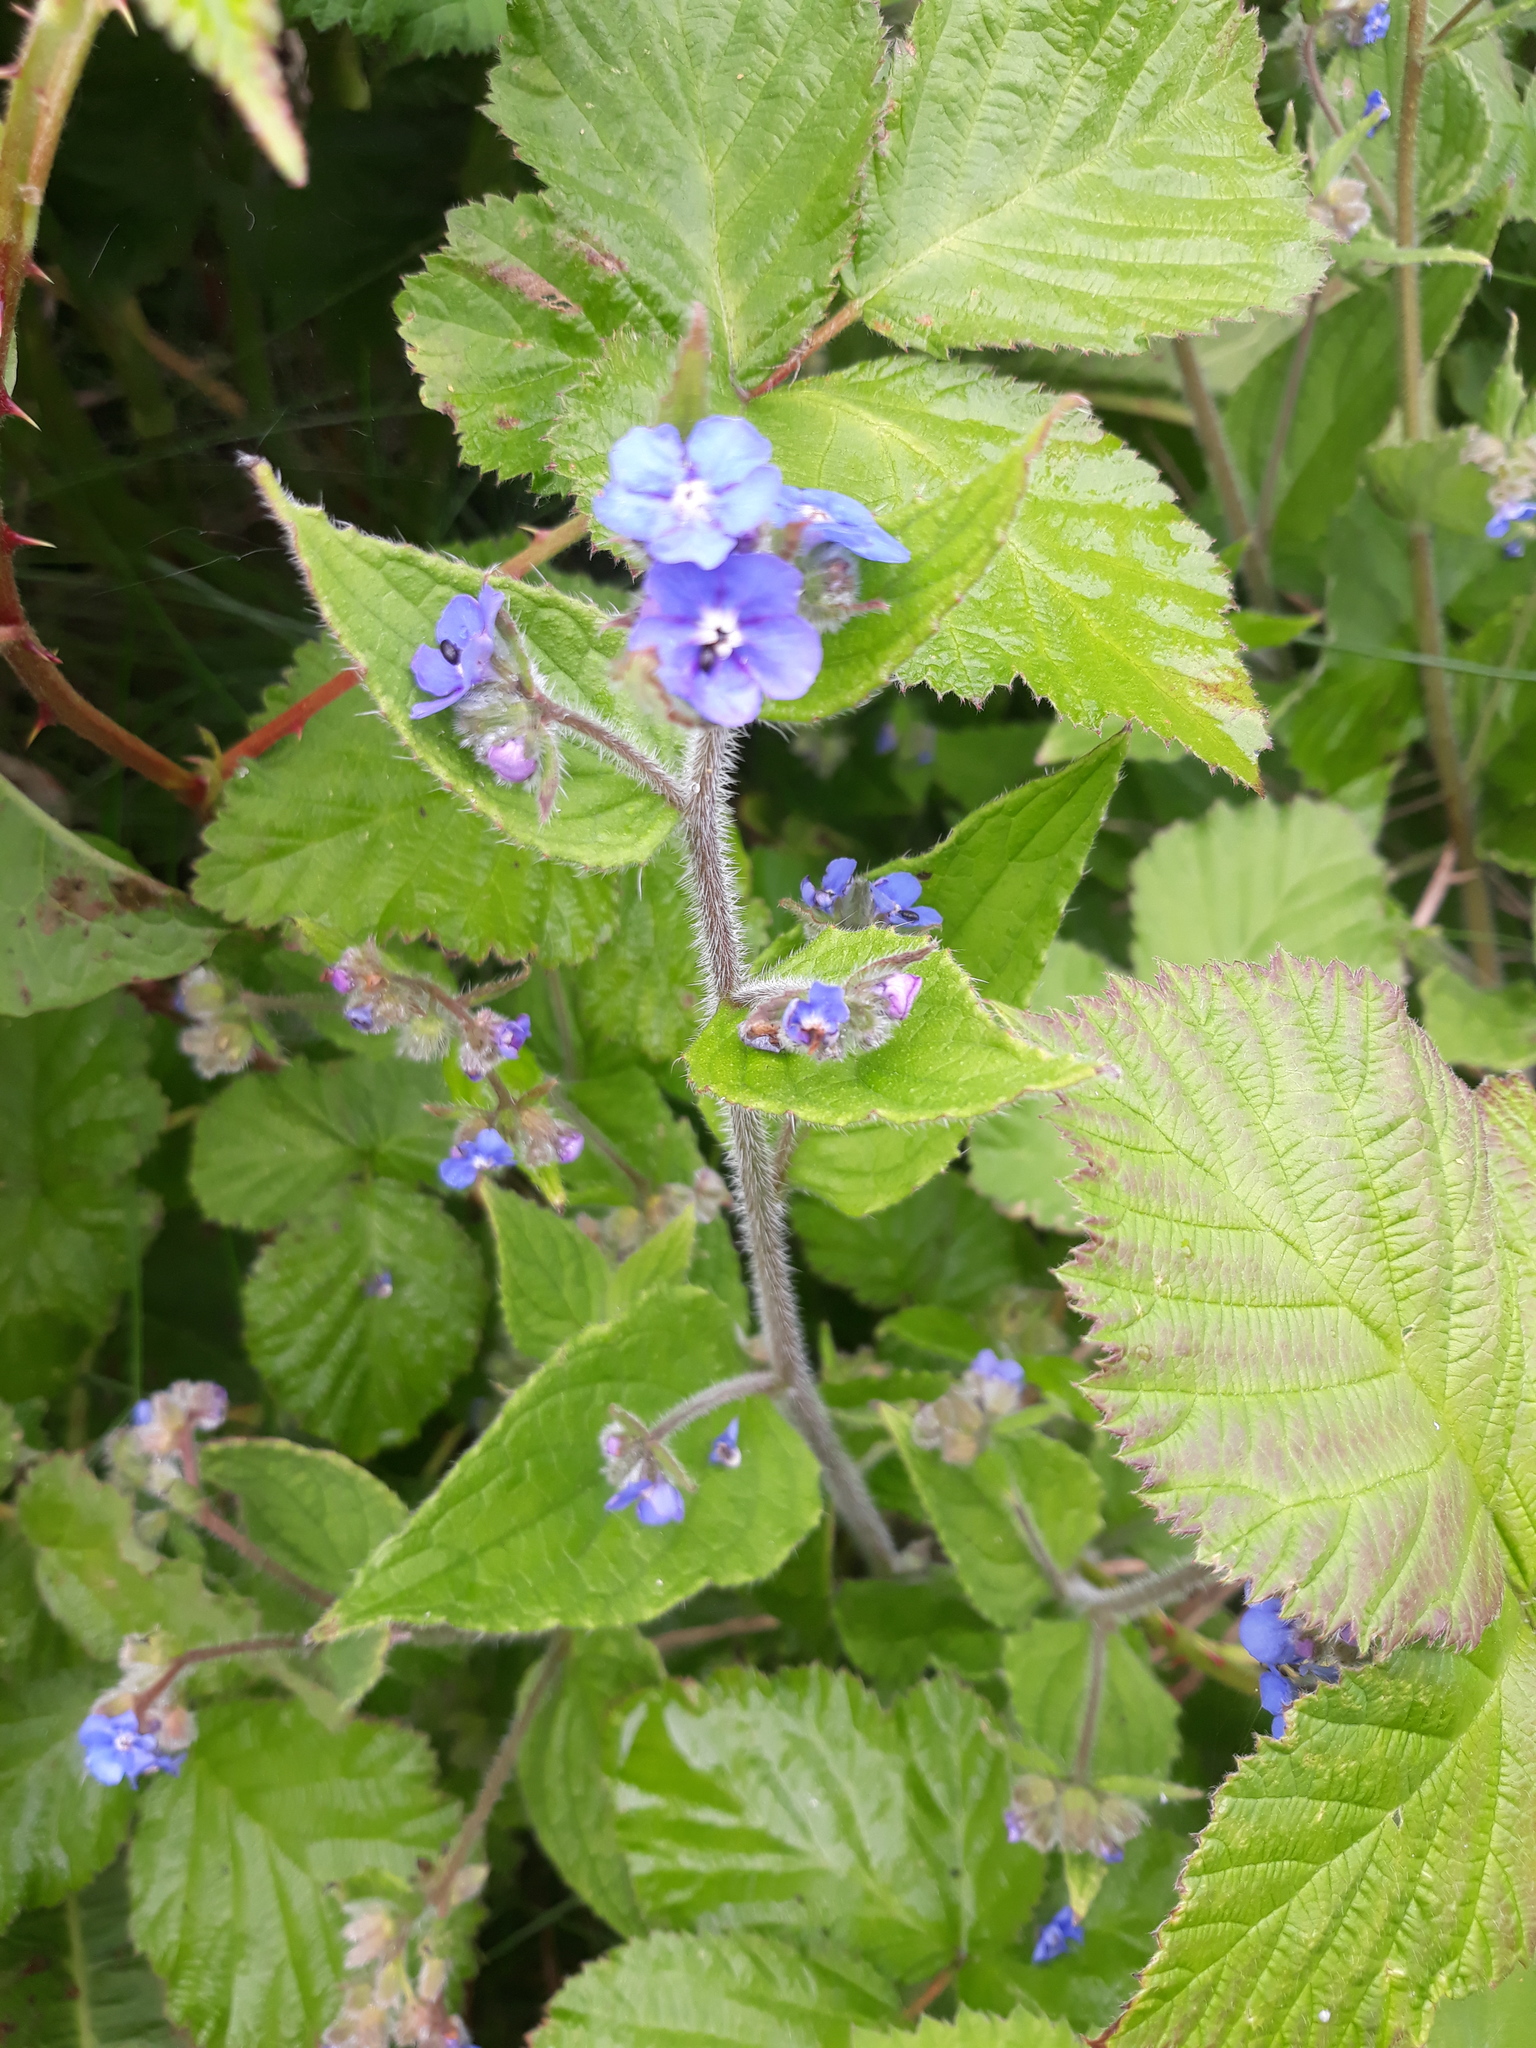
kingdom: Plantae
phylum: Tracheophyta
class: Magnoliopsida
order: Boraginales
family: Boraginaceae
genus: Pentaglottis
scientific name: Pentaglottis sempervirens
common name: Green alkanet
